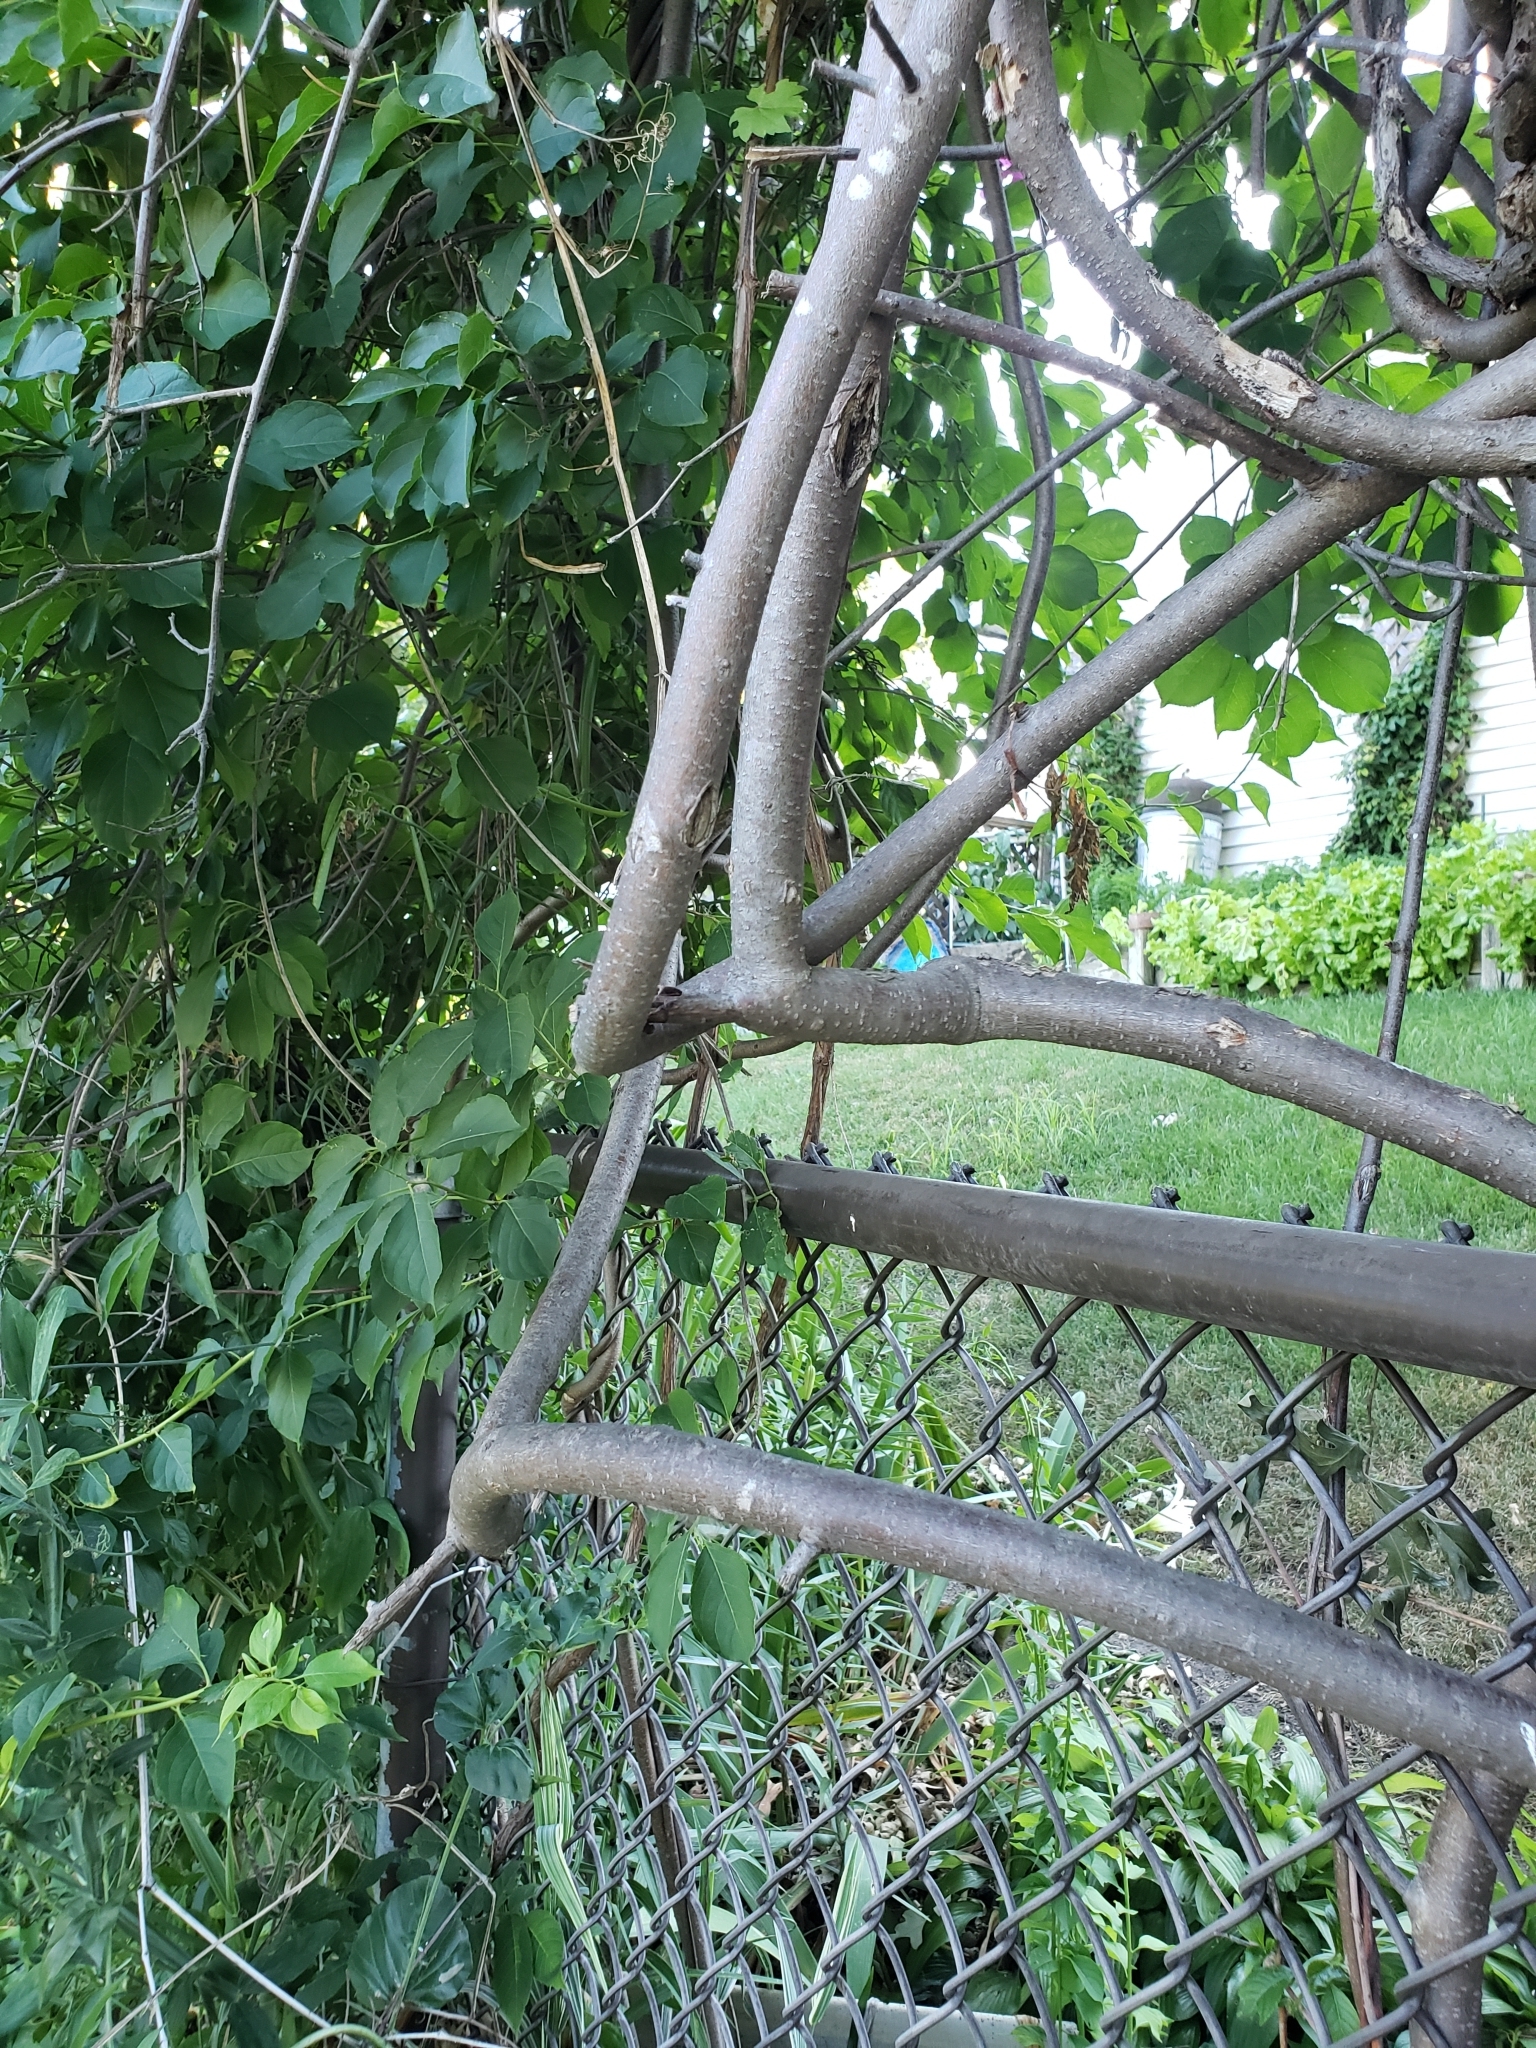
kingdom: Plantae
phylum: Tracheophyta
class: Magnoliopsida
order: Celastrales
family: Celastraceae
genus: Celastrus
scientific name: Celastrus scandens
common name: American bittersweet
